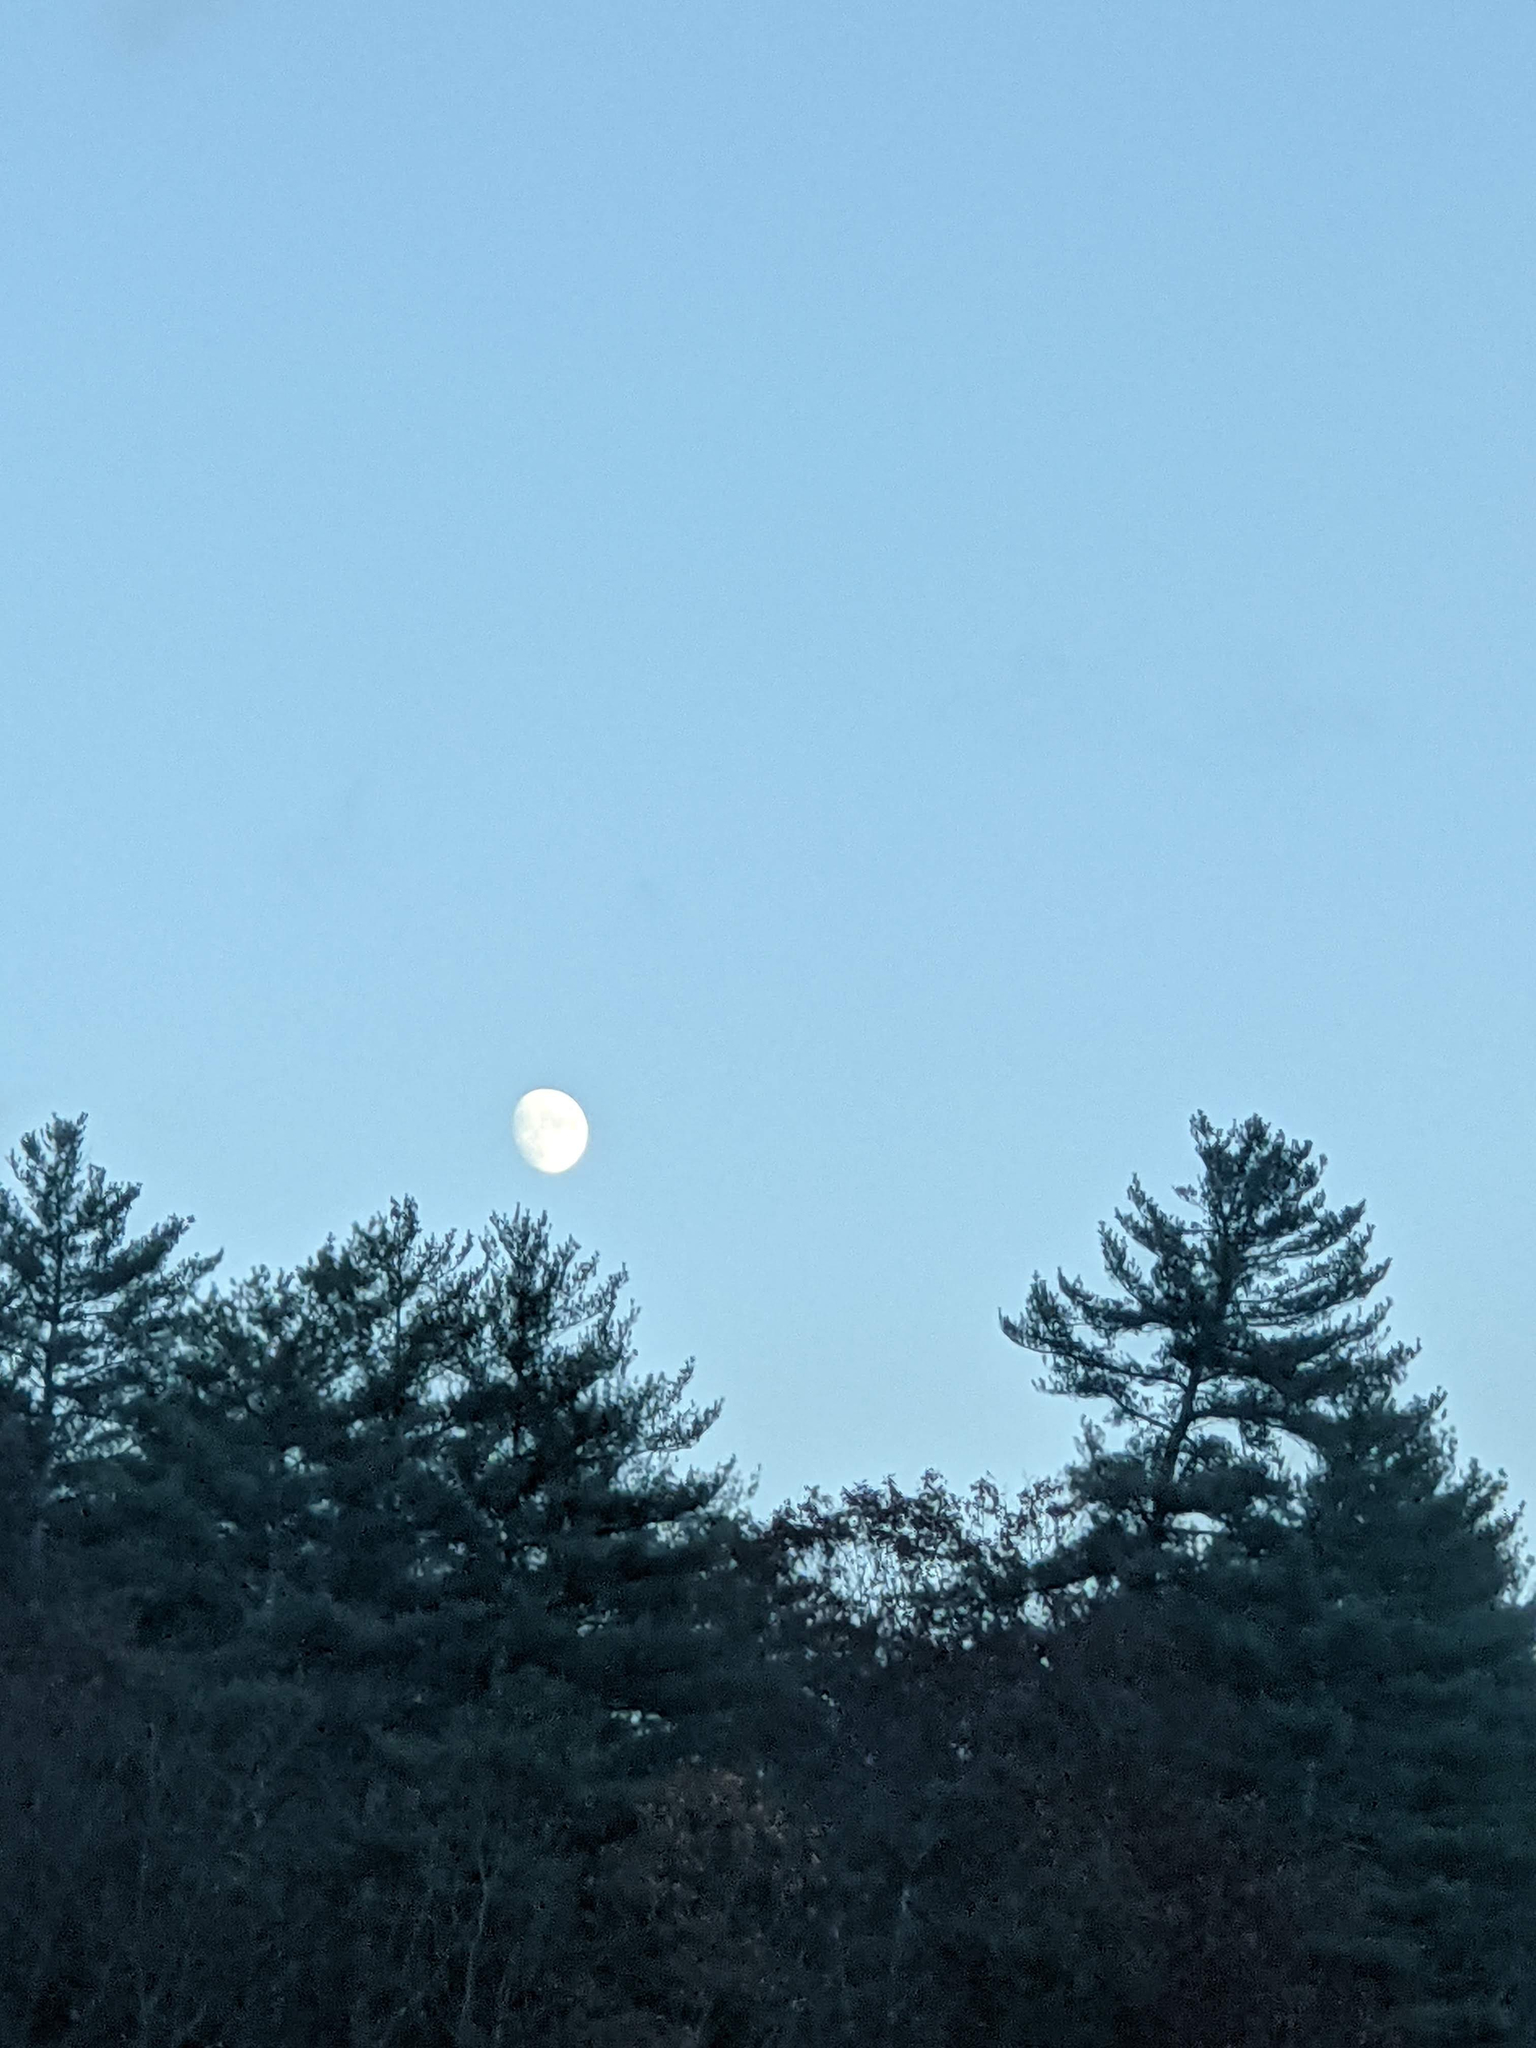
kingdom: Plantae
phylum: Tracheophyta
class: Pinopsida
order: Pinales
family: Pinaceae
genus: Pinus
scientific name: Pinus strobus
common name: Weymouth pine
